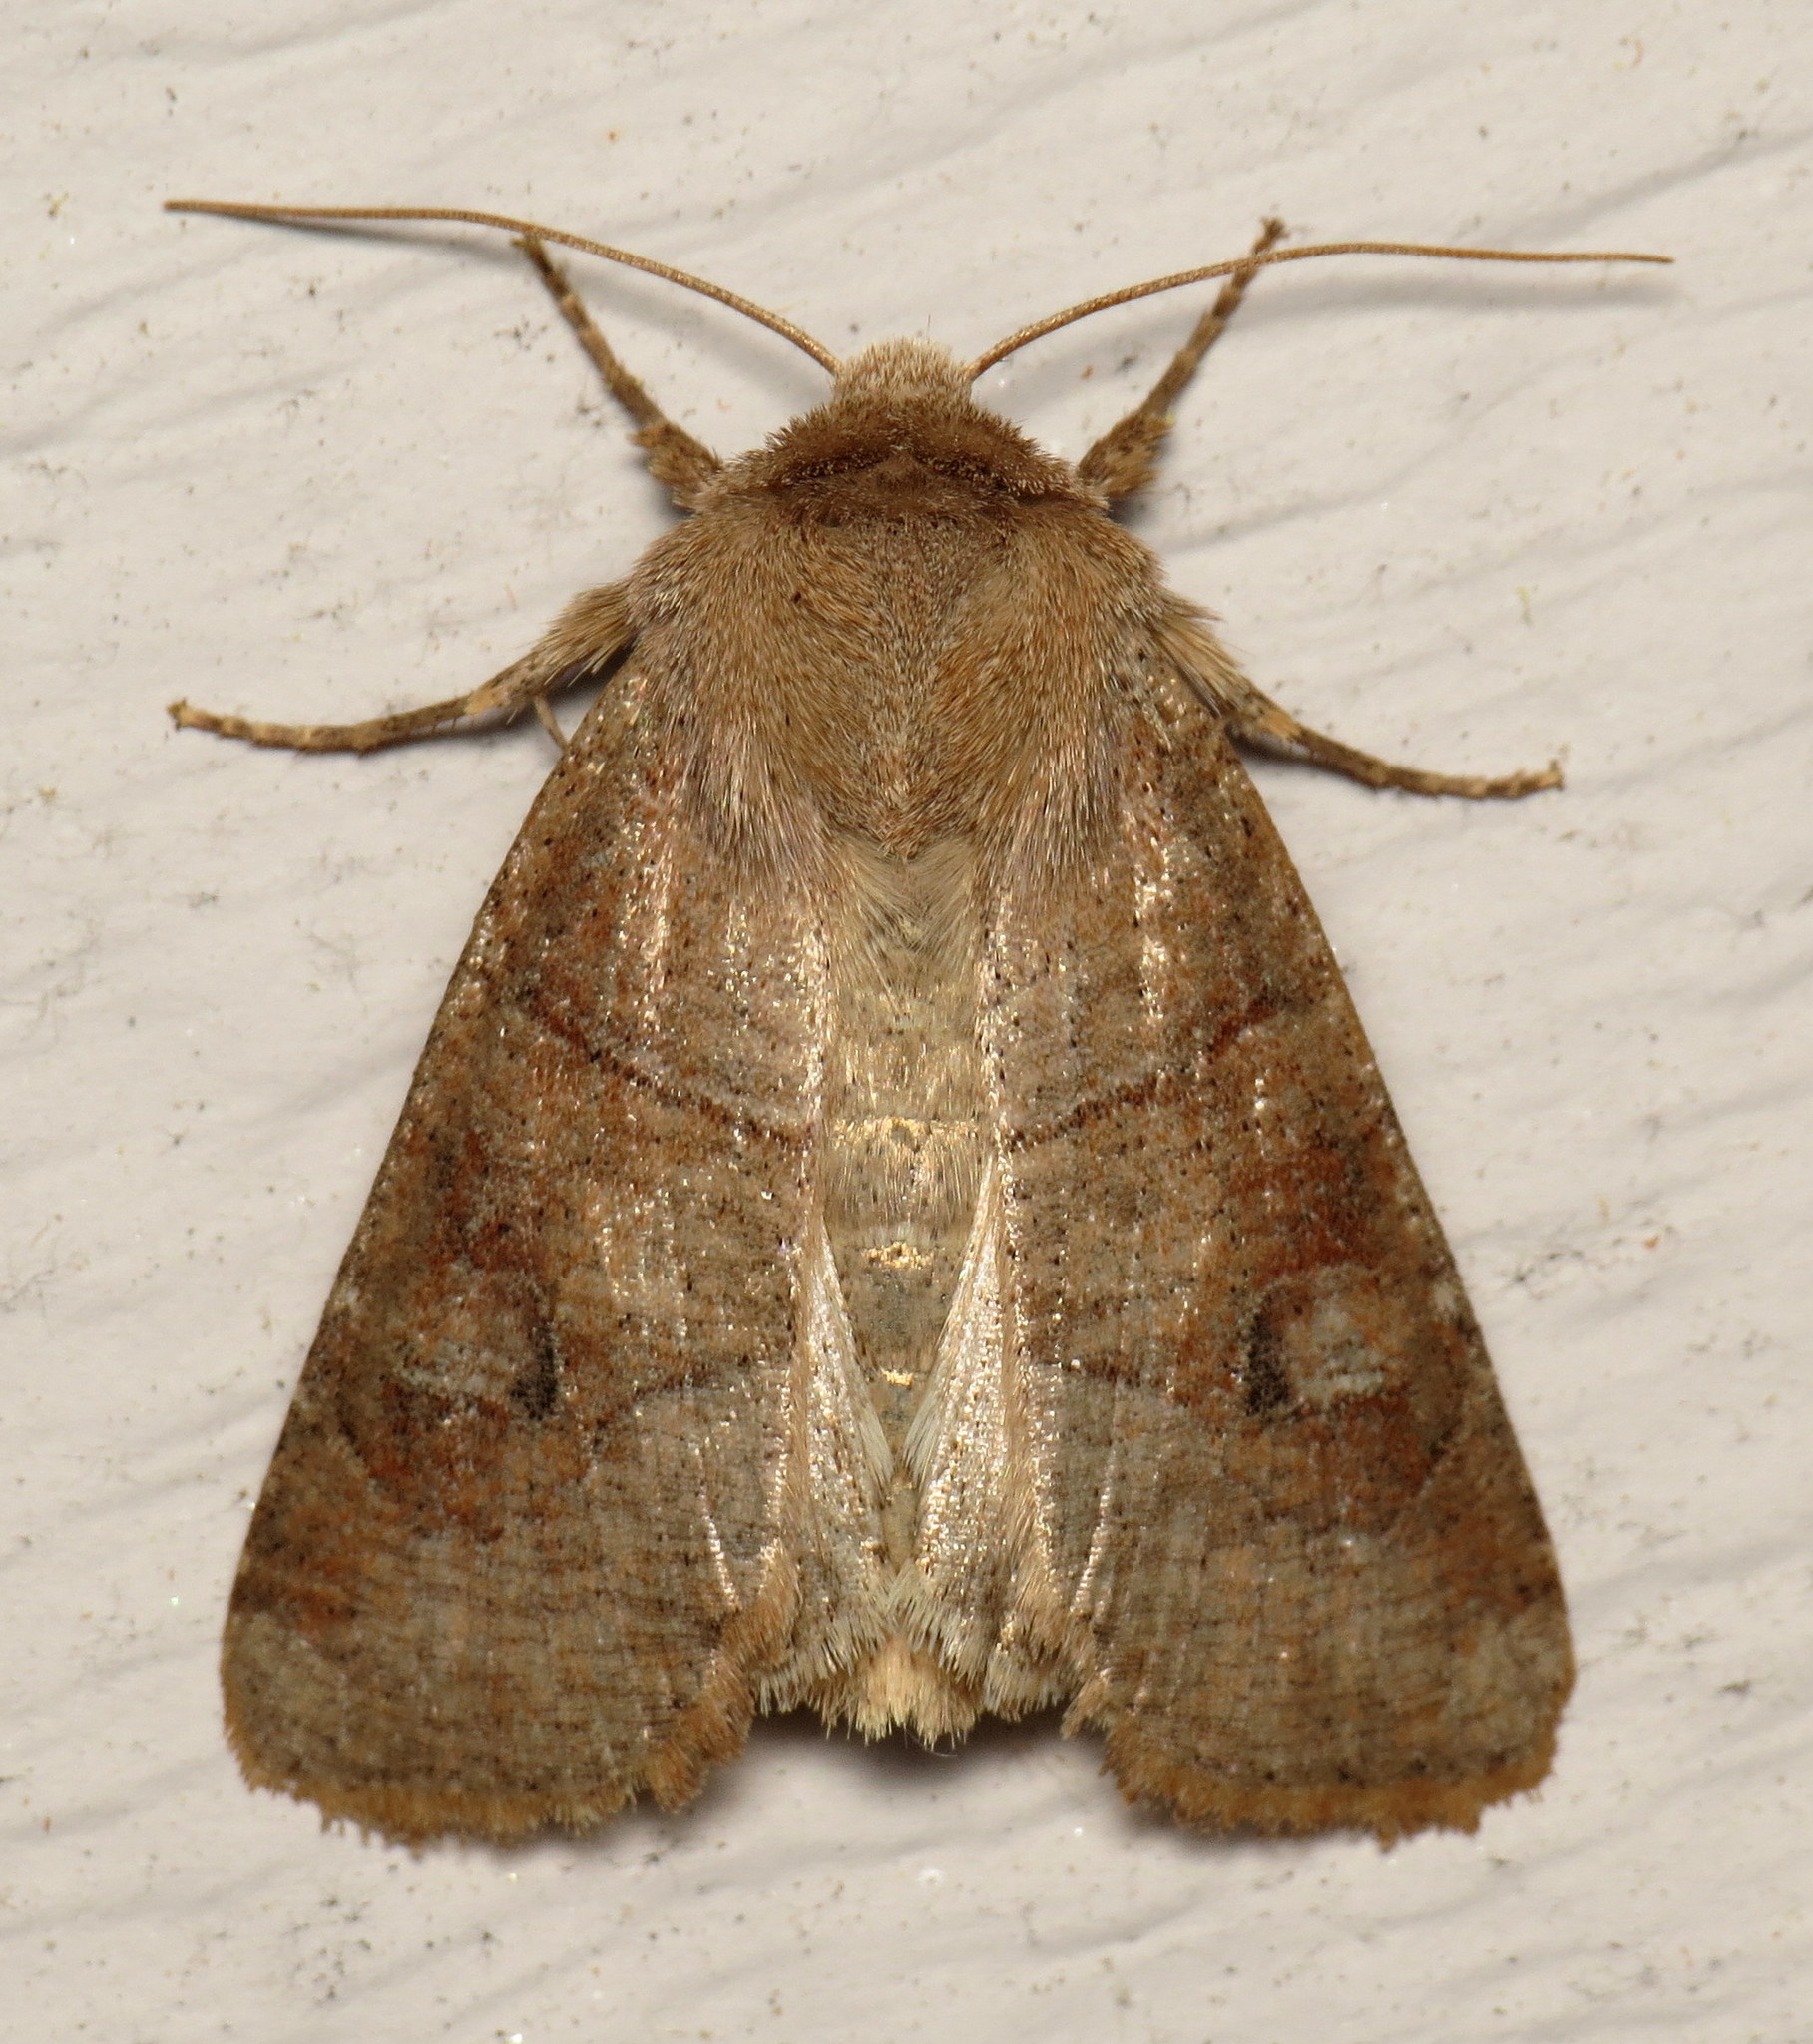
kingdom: Animalia
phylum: Arthropoda
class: Insecta
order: Lepidoptera
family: Noctuidae
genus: Crocigrapha
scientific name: Crocigrapha normani
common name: Norman's quaker
